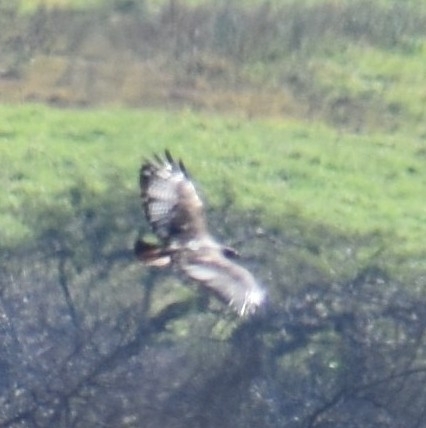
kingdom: Animalia
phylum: Chordata
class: Aves
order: Accipitriformes
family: Accipitridae
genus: Buteo
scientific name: Buteo rufofuscus
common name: Jackal buzzard
